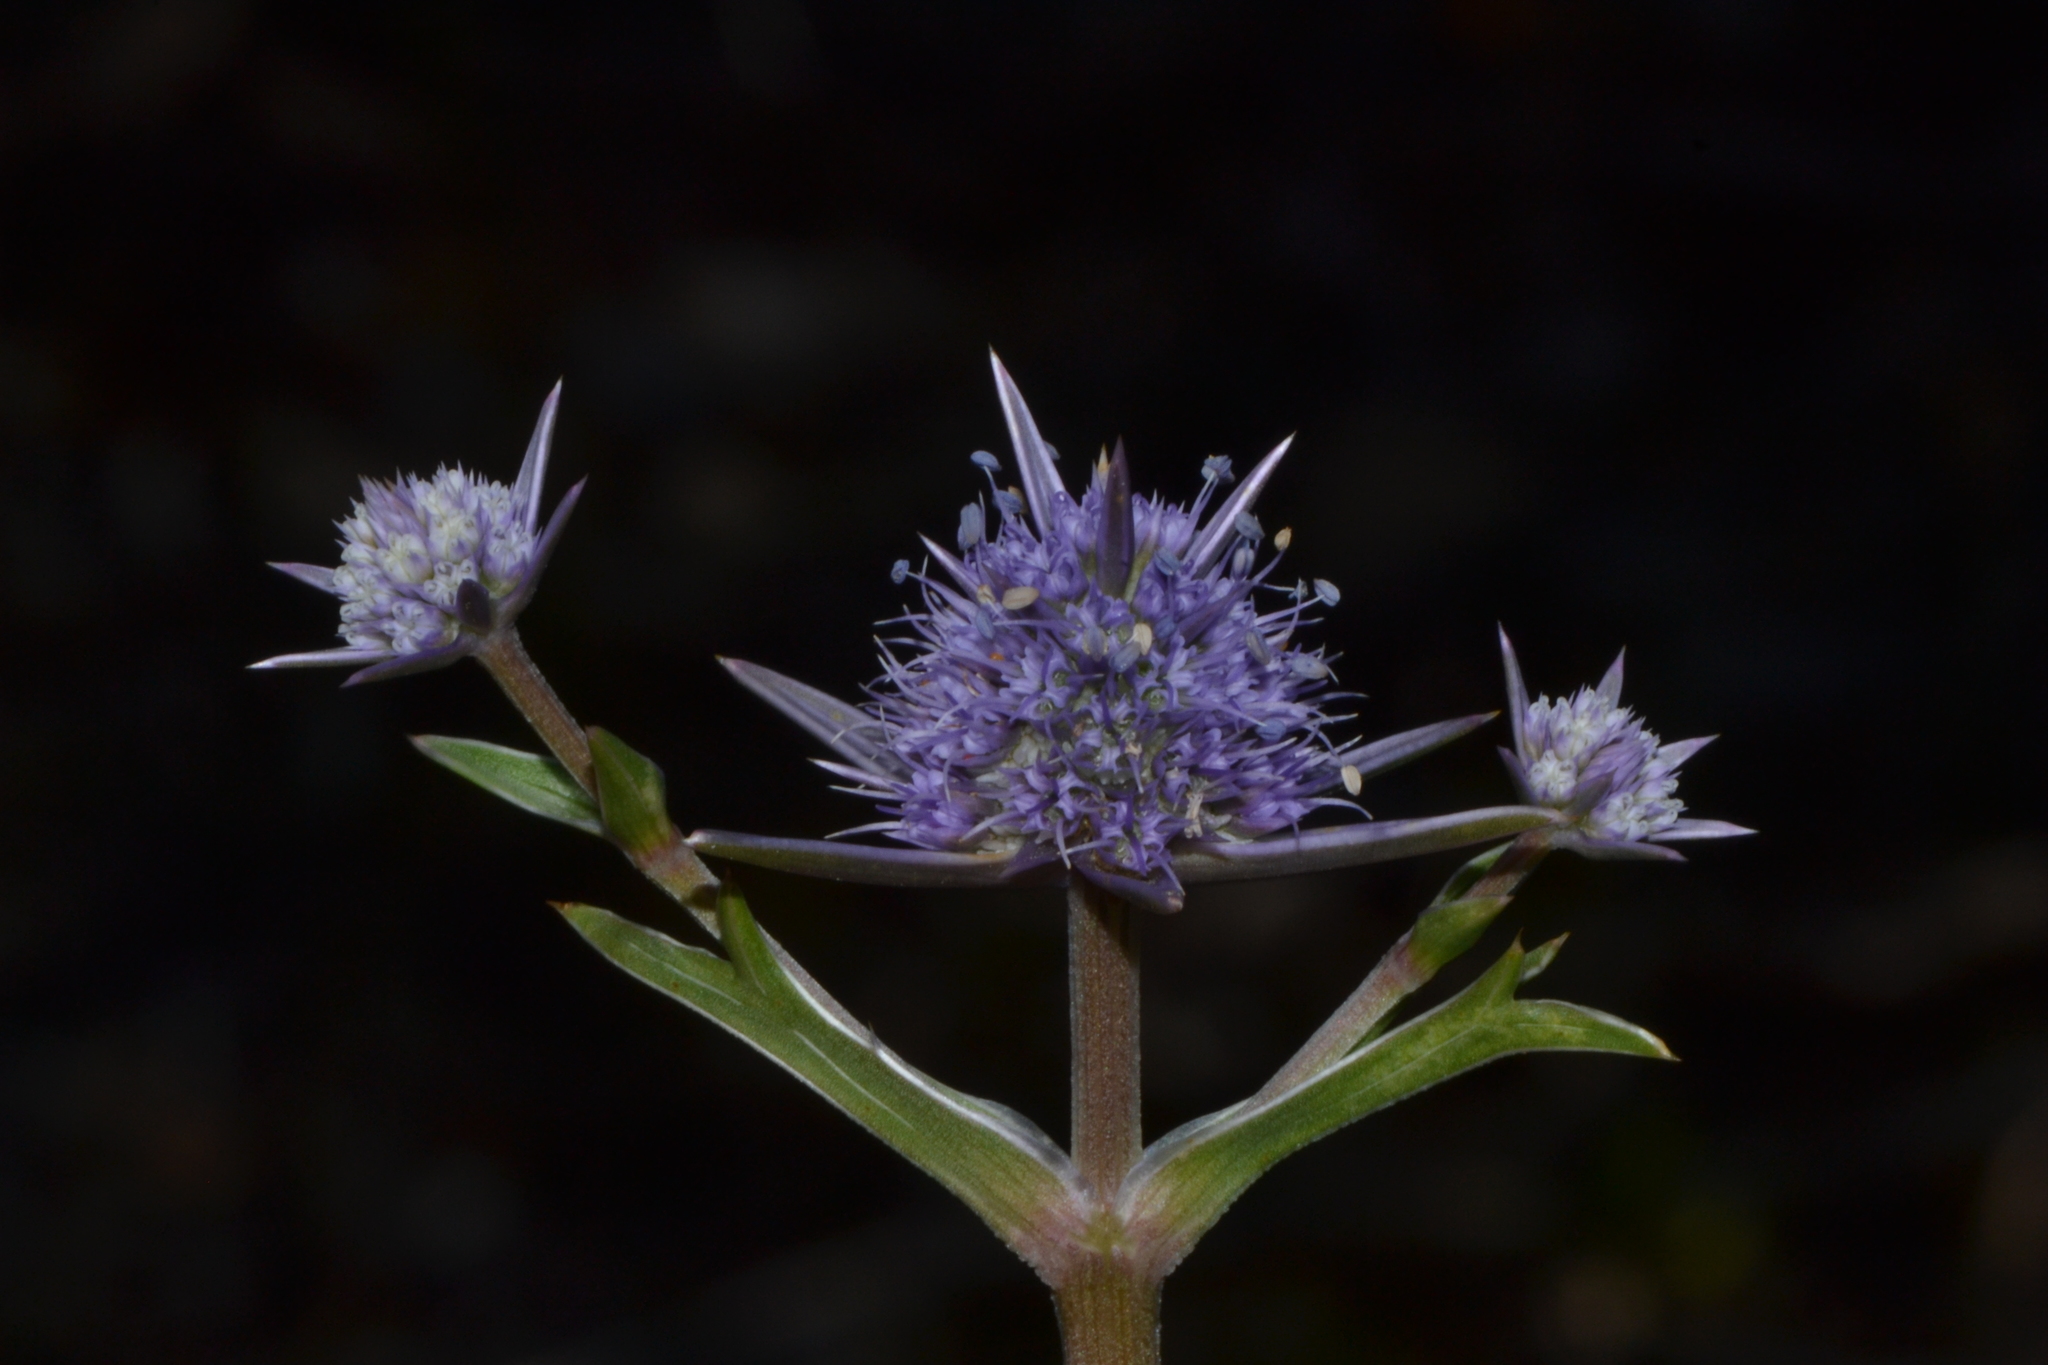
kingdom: Plantae
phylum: Tracheophyta
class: Magnoliopsida
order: Apiales
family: Apiaceae
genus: Eryngium
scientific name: Eryngium pinnatifidum
